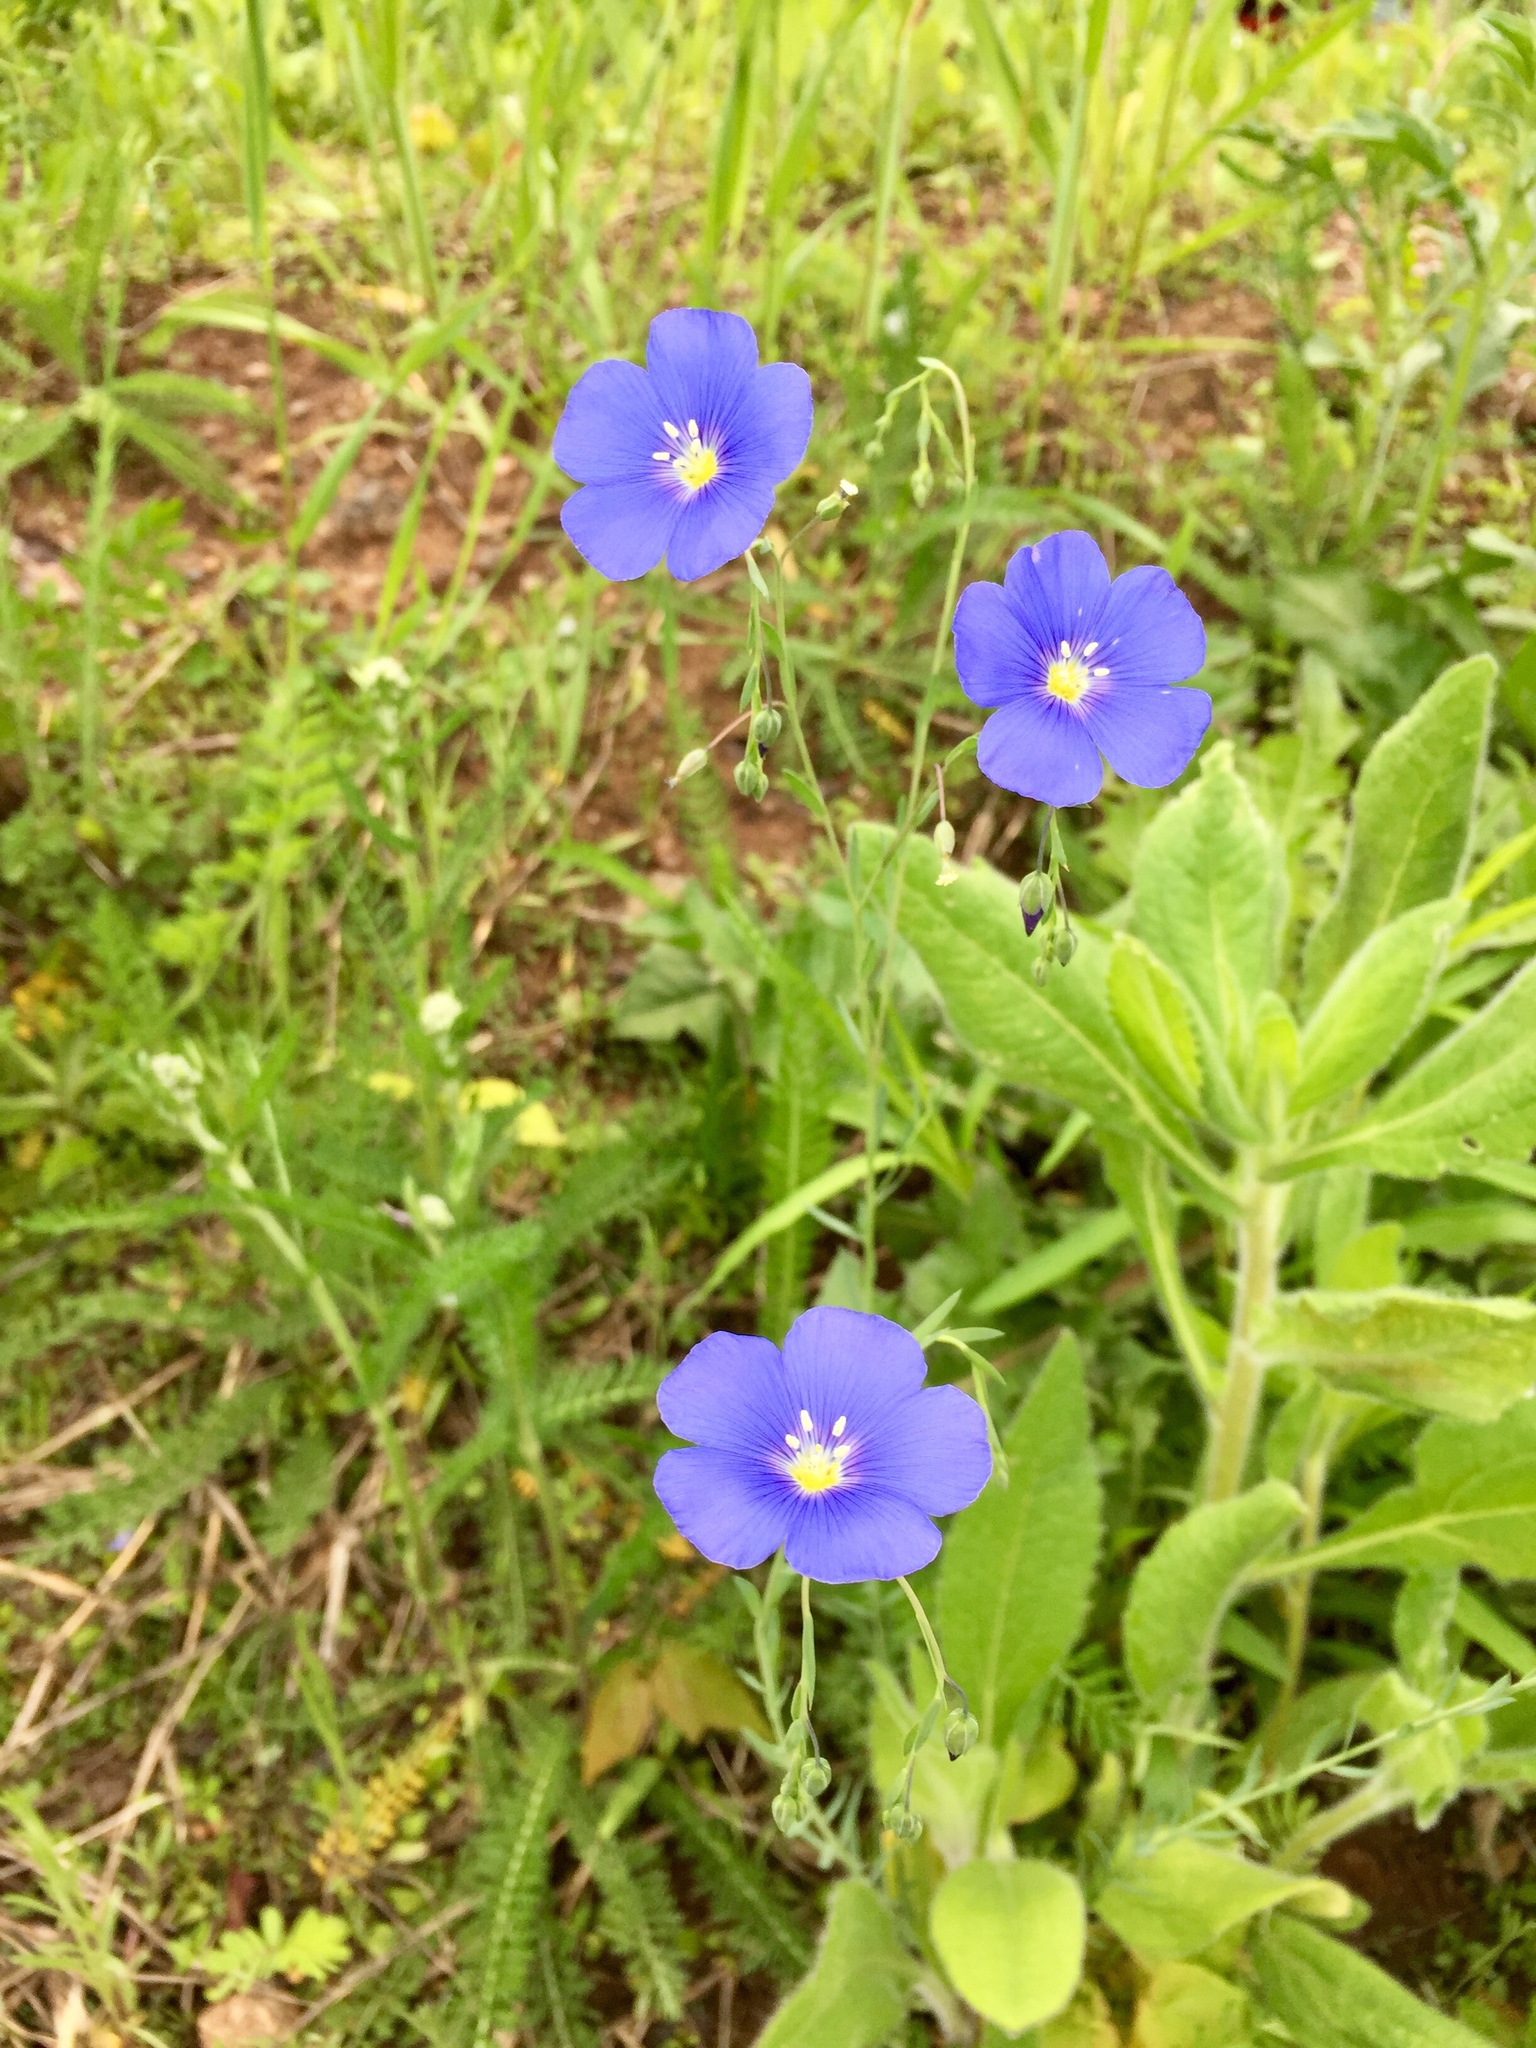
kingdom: Plantae
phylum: Tracheophyta
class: Magnoliopsida
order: Malpighiales
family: Linaceae
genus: Linum
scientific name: Linum perenne
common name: Blue flax
